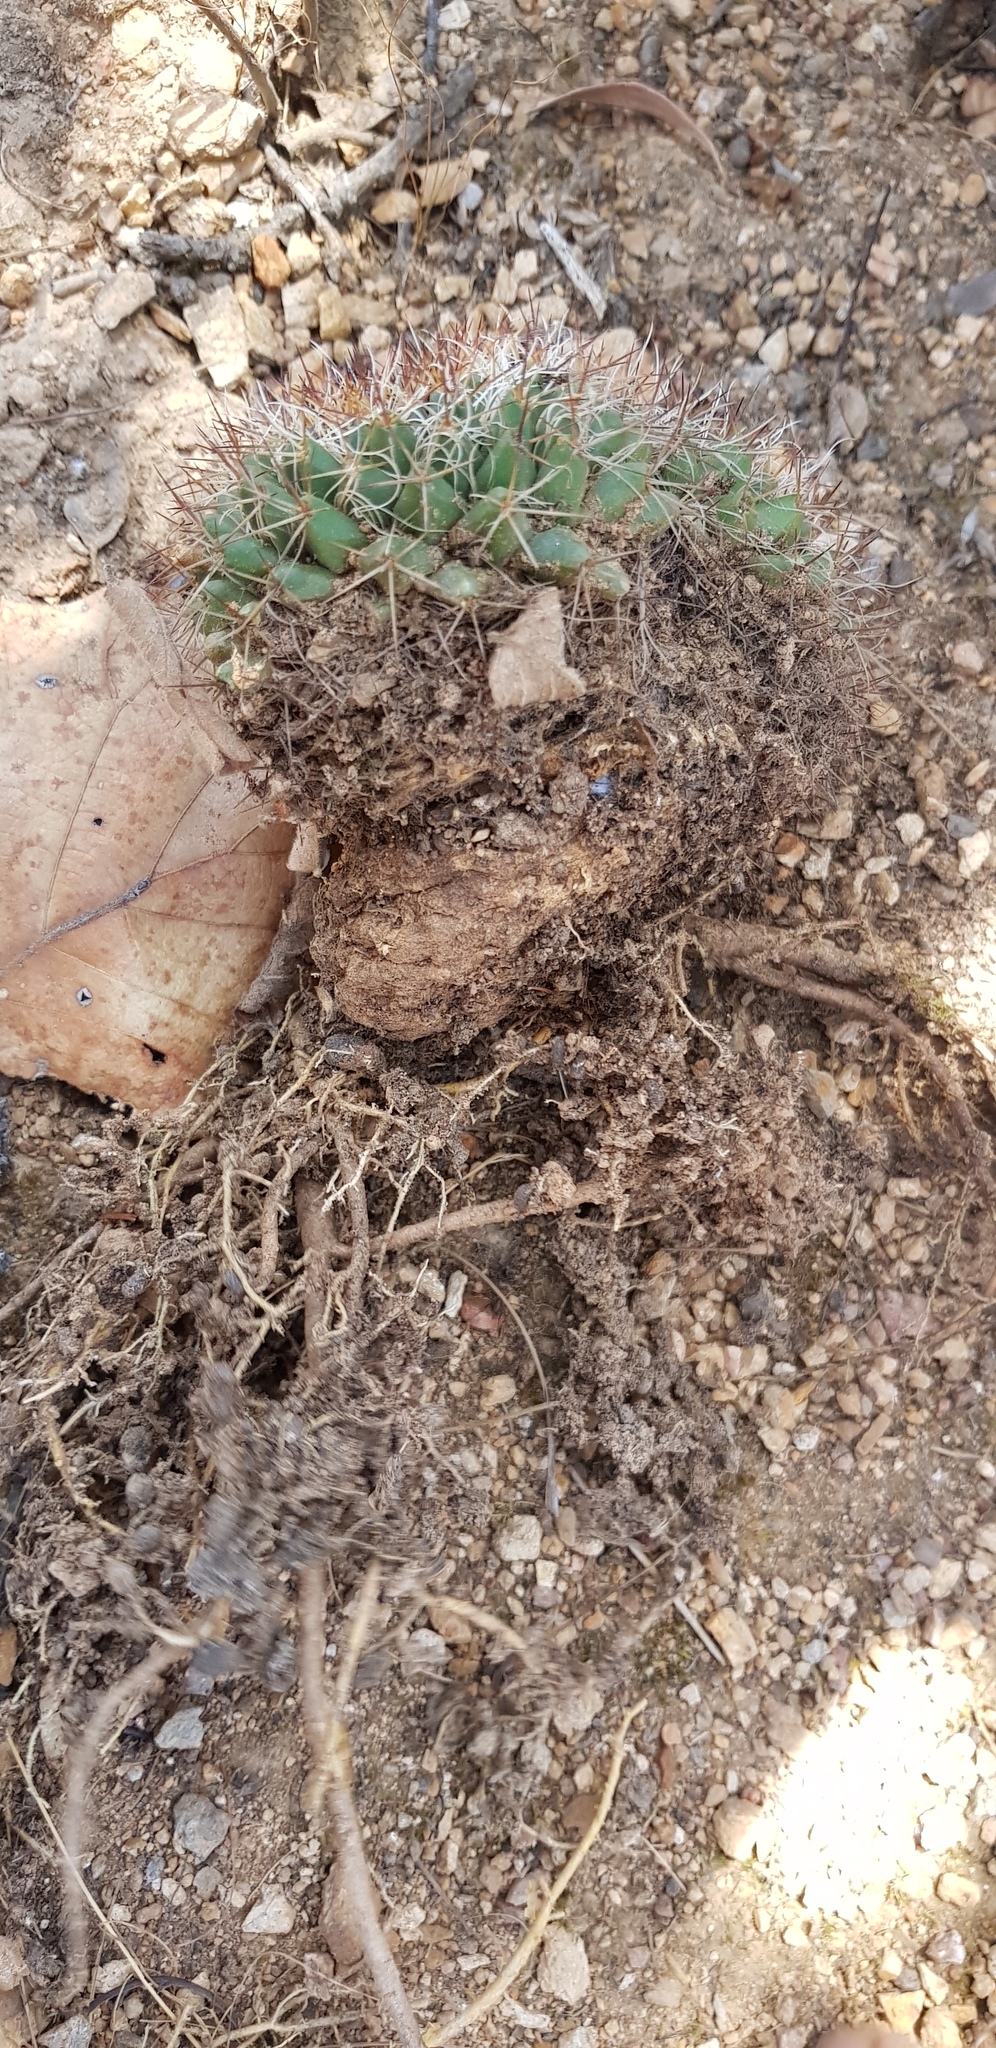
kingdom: Plantae
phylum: Tracheophyta
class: Magnoliopsida
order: Caryophyllales
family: Cactaceae
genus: Mammillaria
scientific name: Mammillaria karwinskiana
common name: Royal cross
